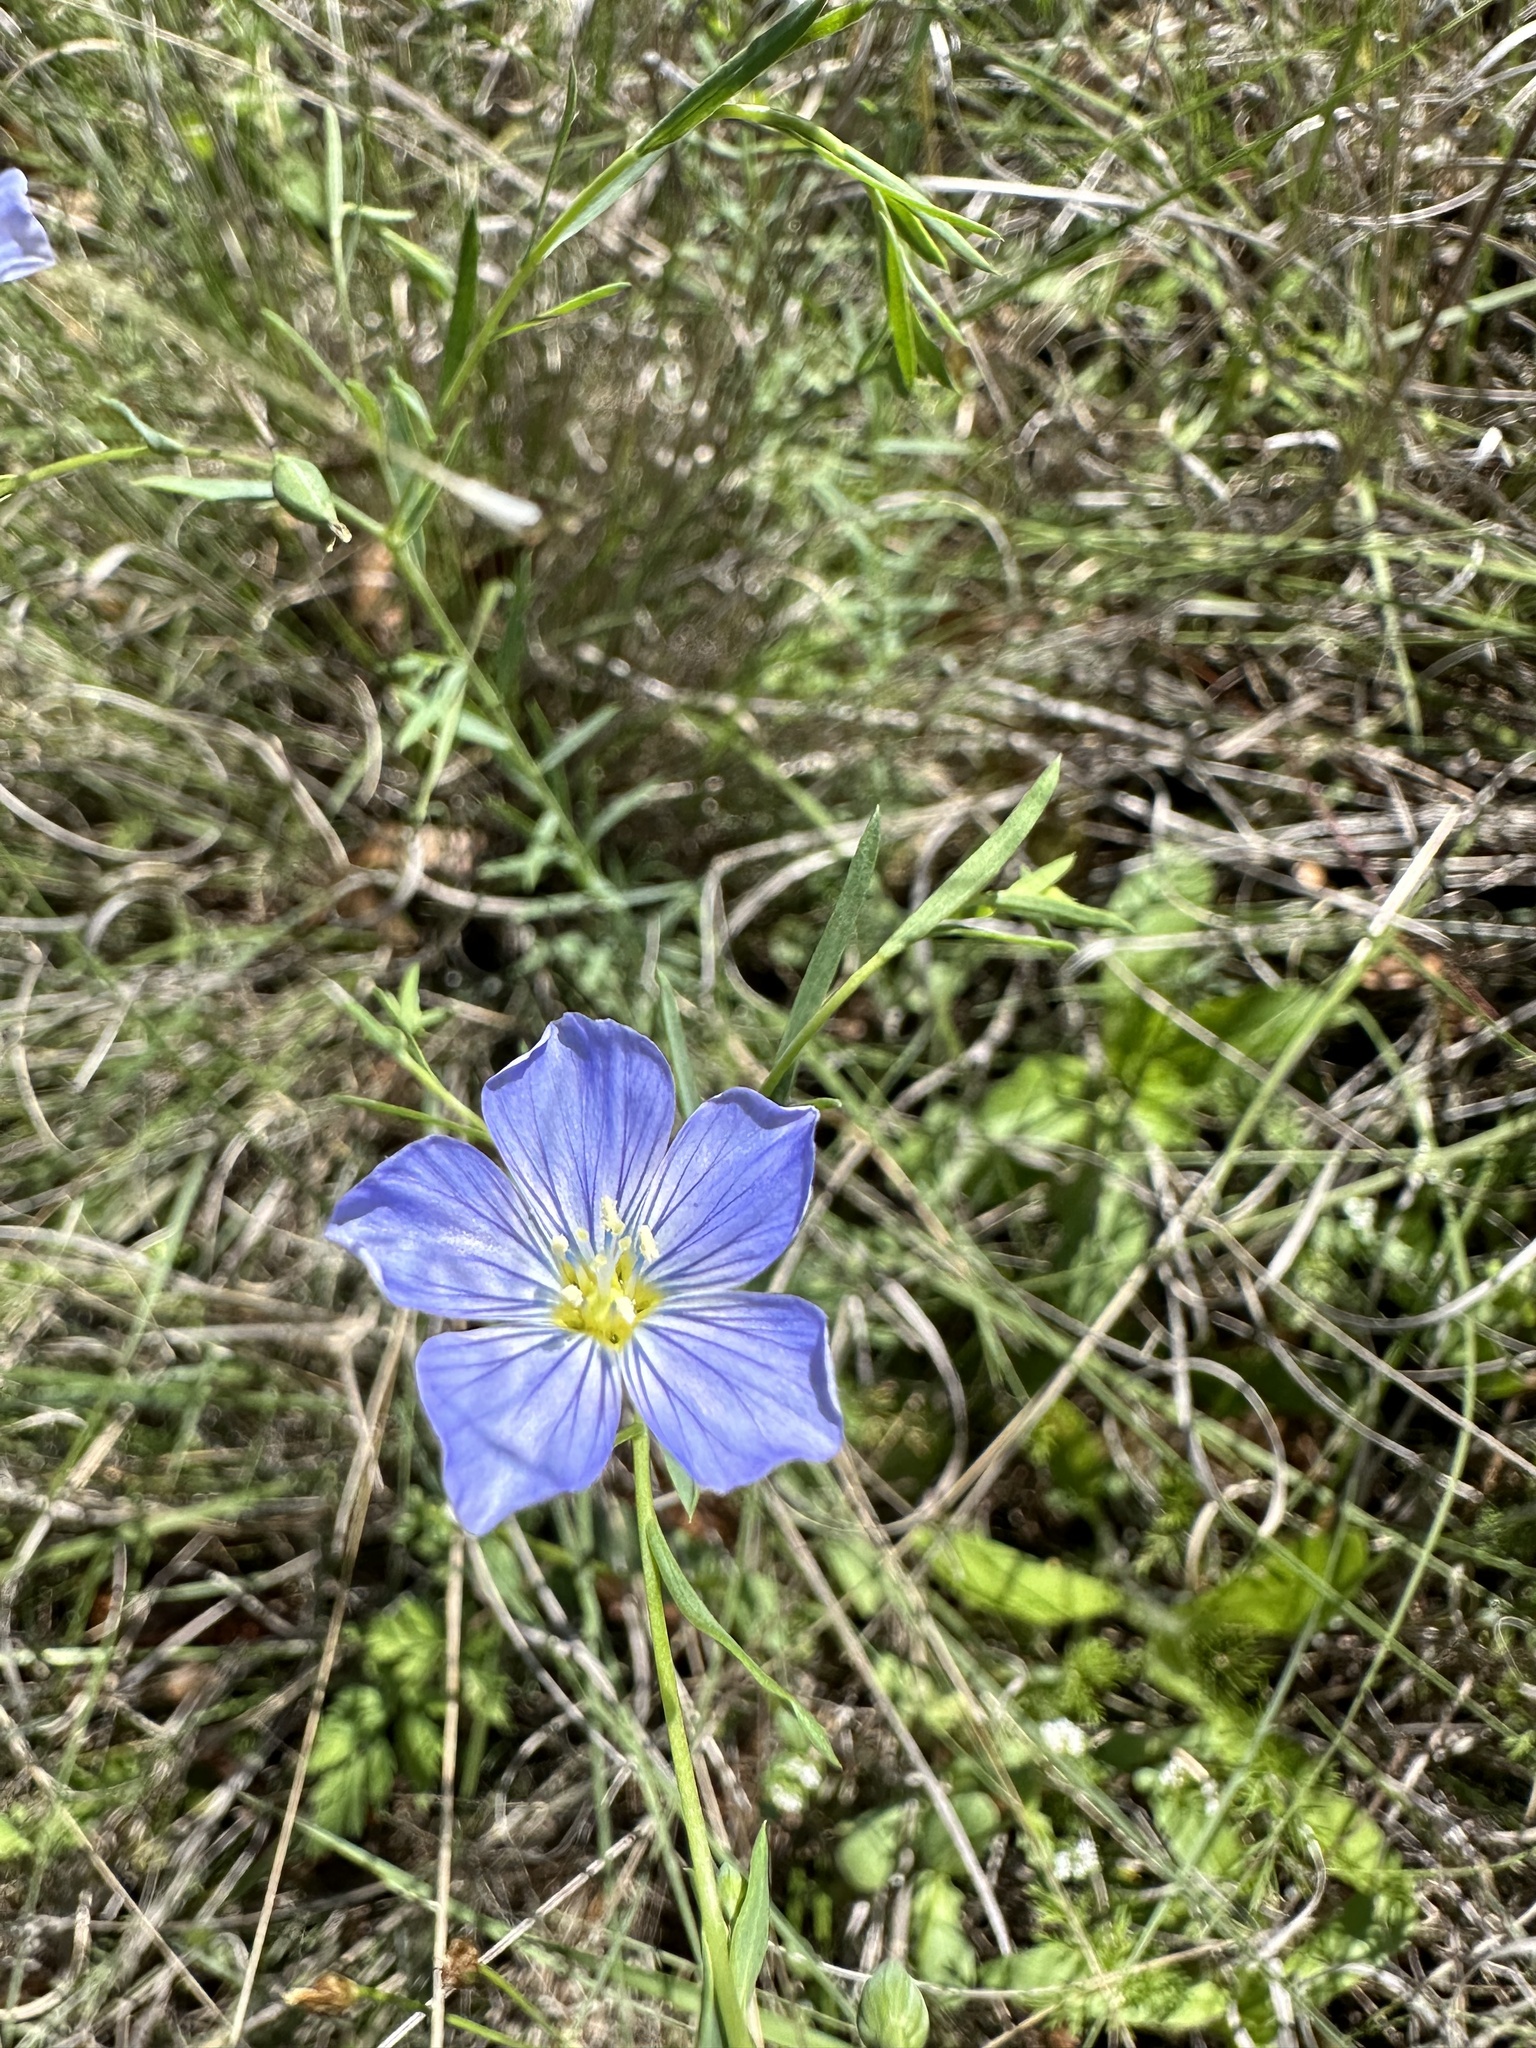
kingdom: Plantae
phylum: Tracheophyta
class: Magnoliopsida
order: Malpighiales
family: Linaceae
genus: Linum
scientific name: Linum pratense
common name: Norton's flax
